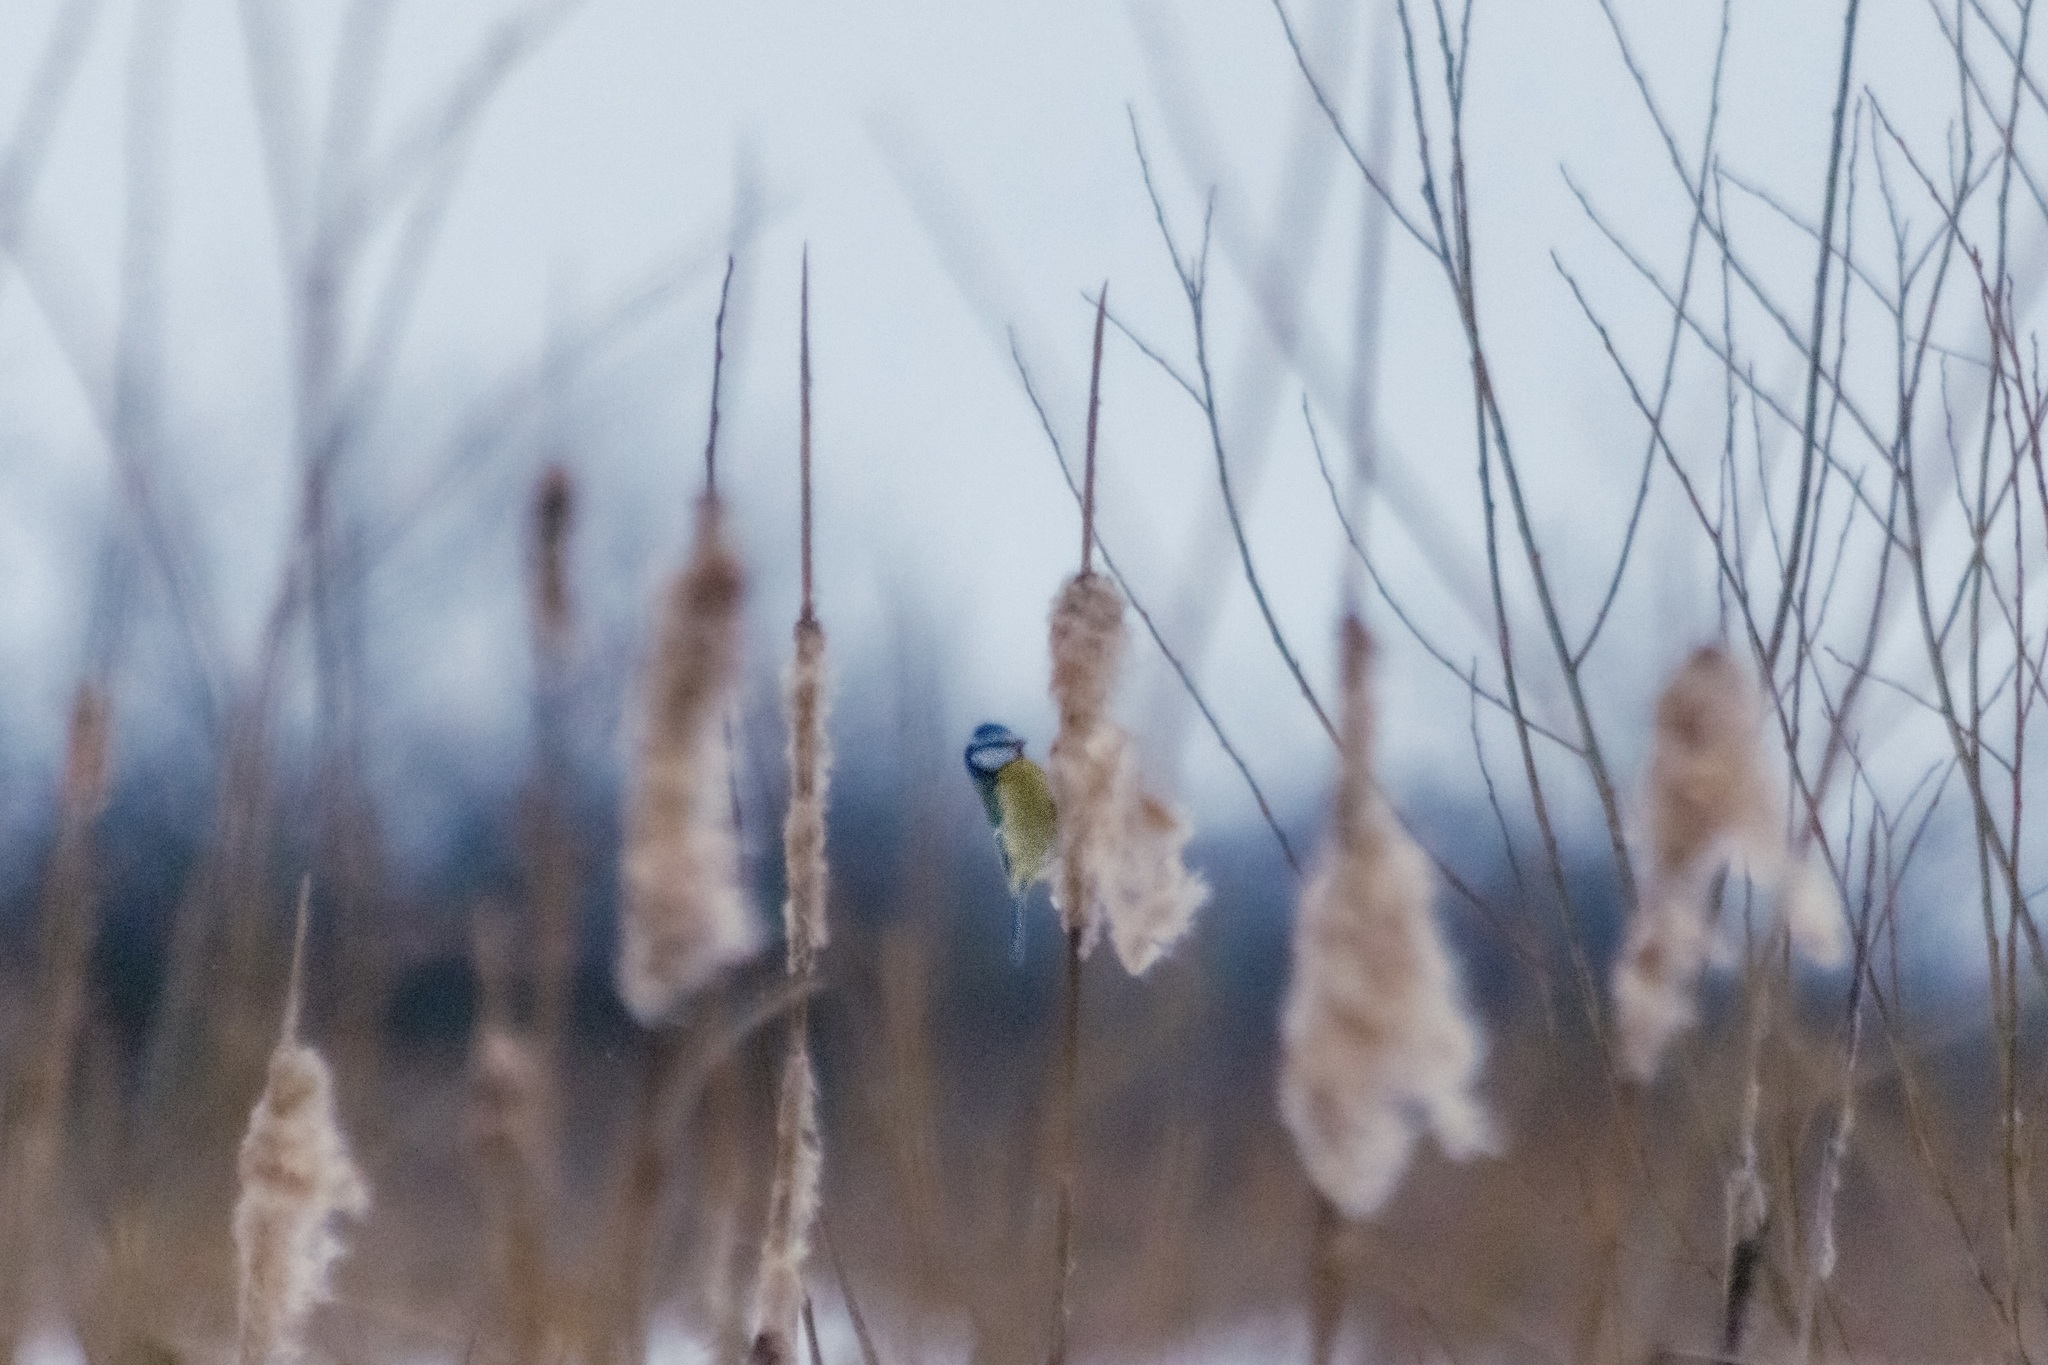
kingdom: Animalia
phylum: Chordata
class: Aves
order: Passeriformes
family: Paridae
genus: Cyanistes
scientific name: Cyanistes caeruleus
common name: Eurasian blue tit
